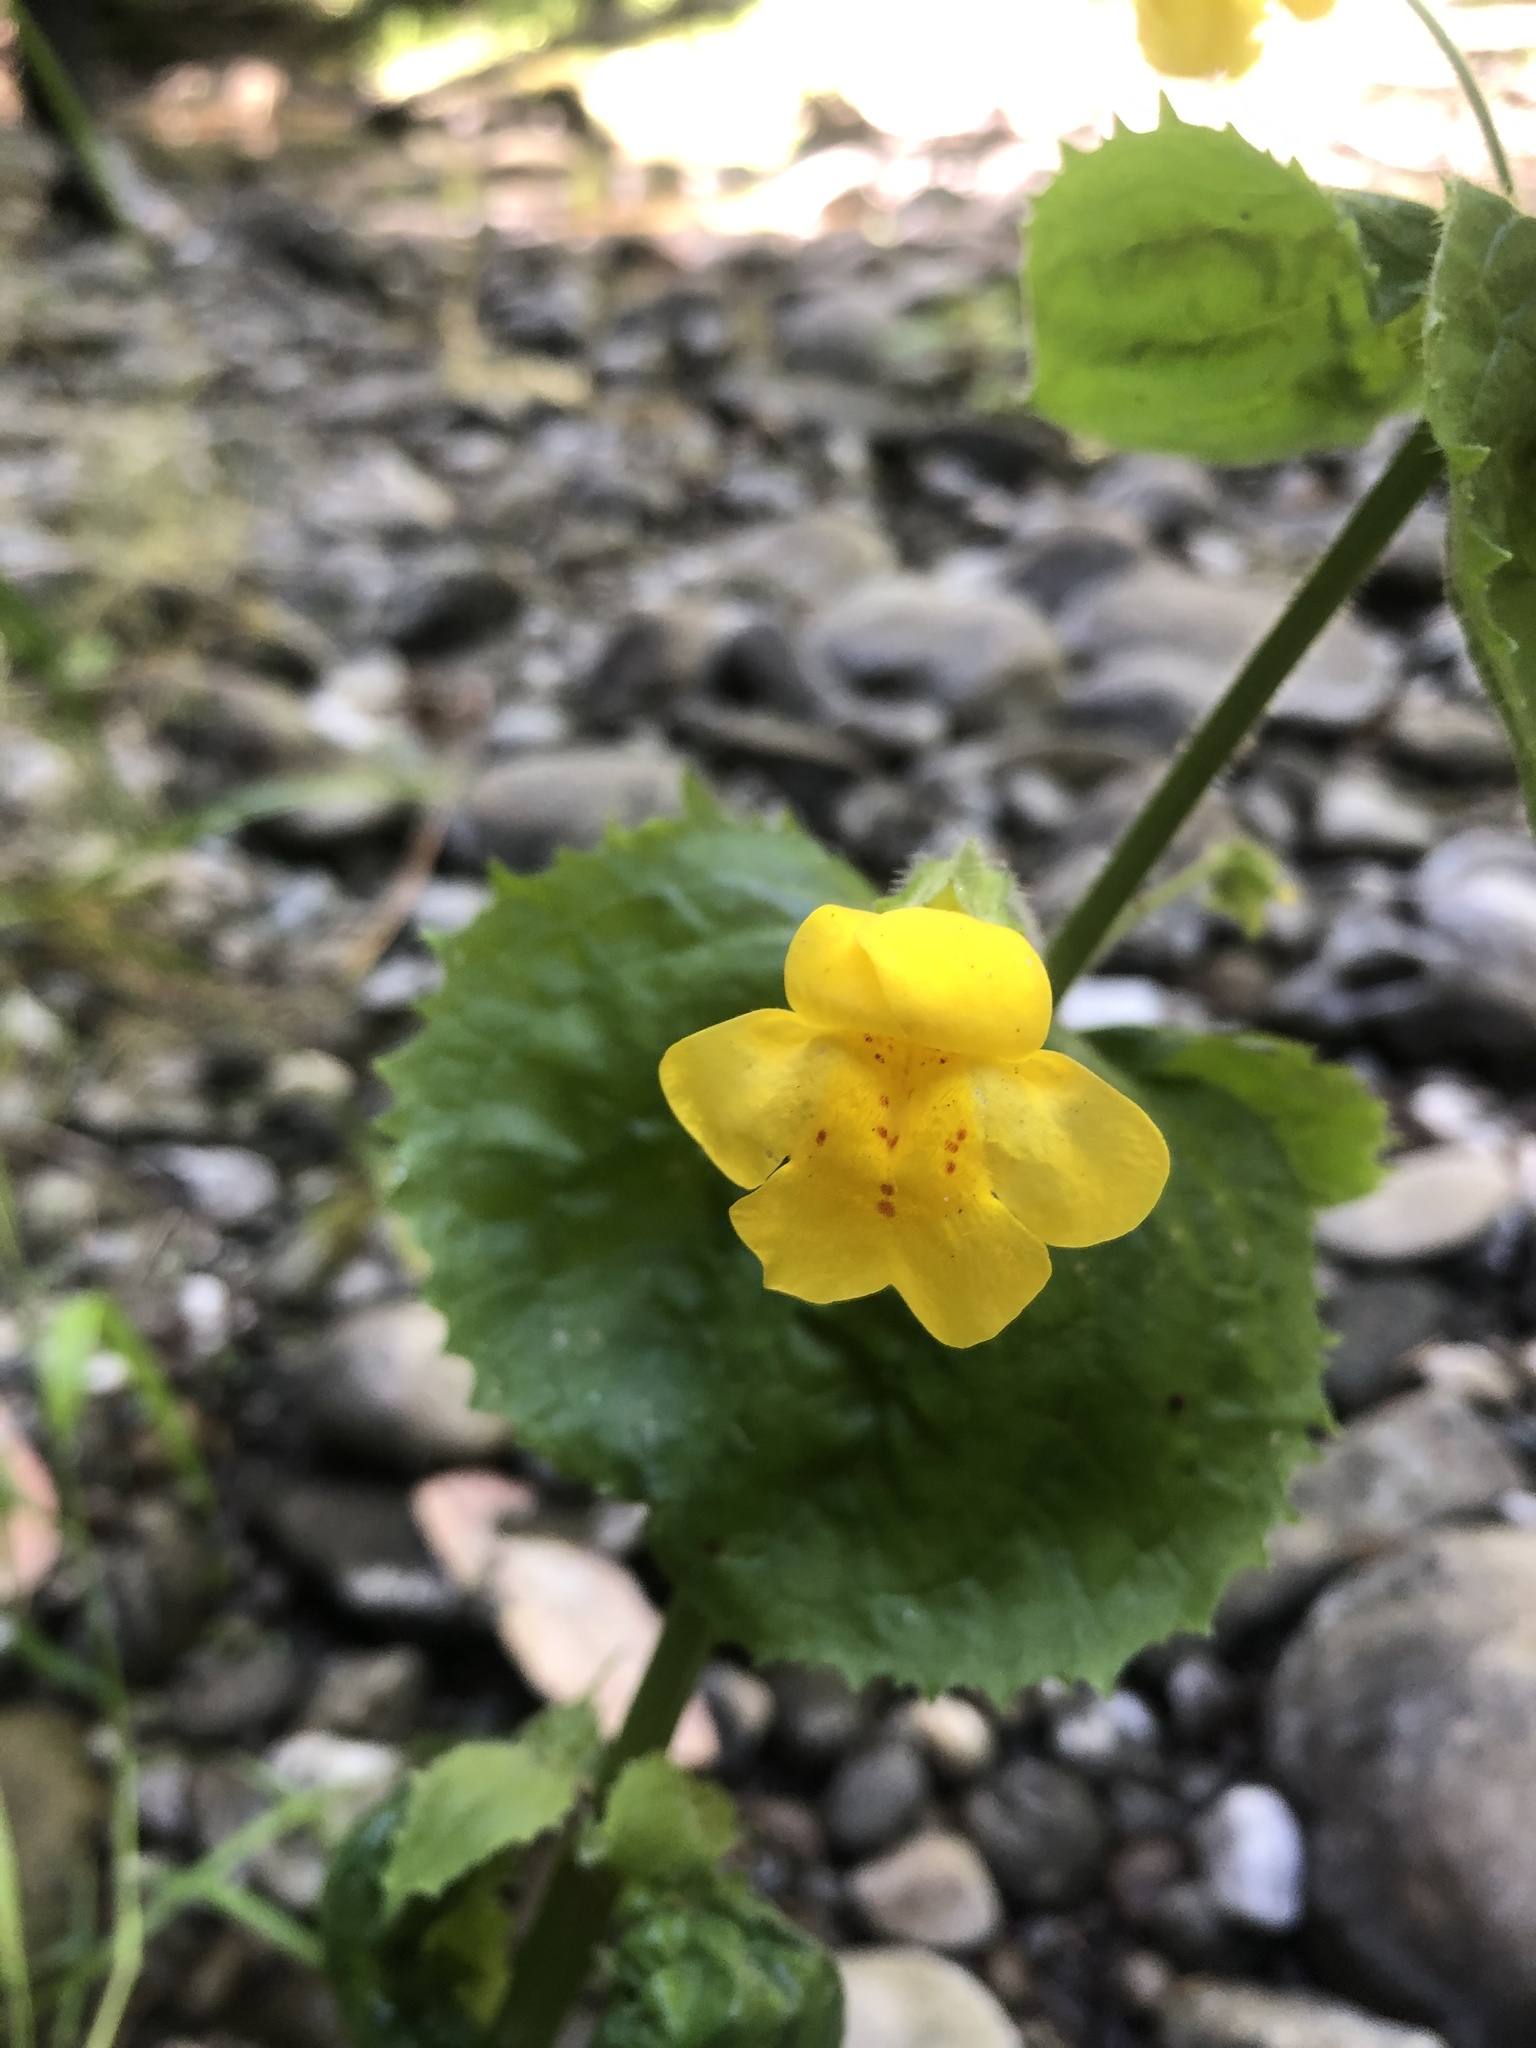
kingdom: Plantae
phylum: Tracheophyta
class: Magnoliopsida
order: Lamiales
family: Phrymaceae
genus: Erythranthe
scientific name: Erythranthe guttata
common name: Monkeyflower
